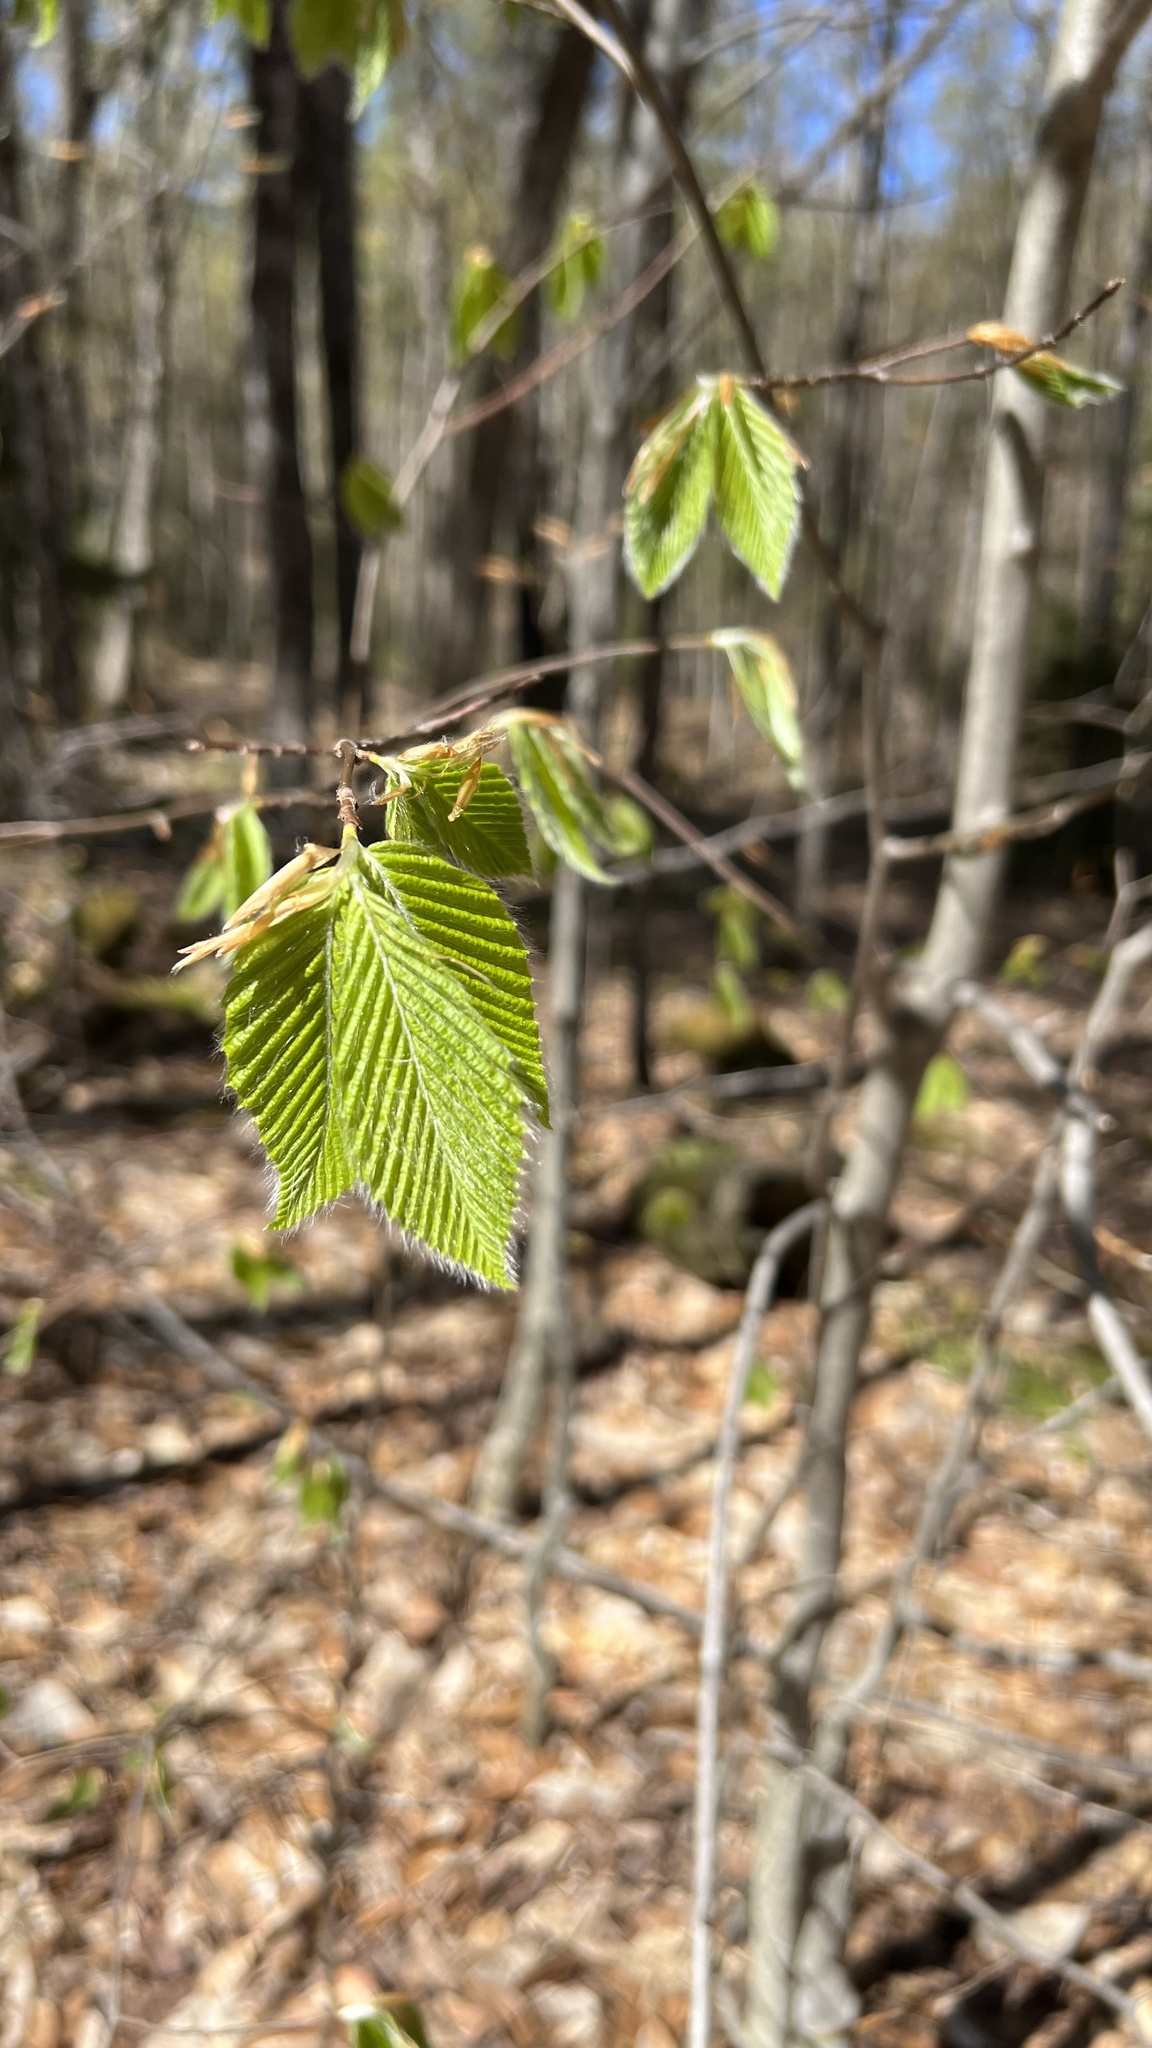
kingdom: Plantae
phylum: Tracheophyta
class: Magnoliopsida
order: Fagales
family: Fagaceae
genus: Fagus
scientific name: Fagus grandifolia
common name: American beech
